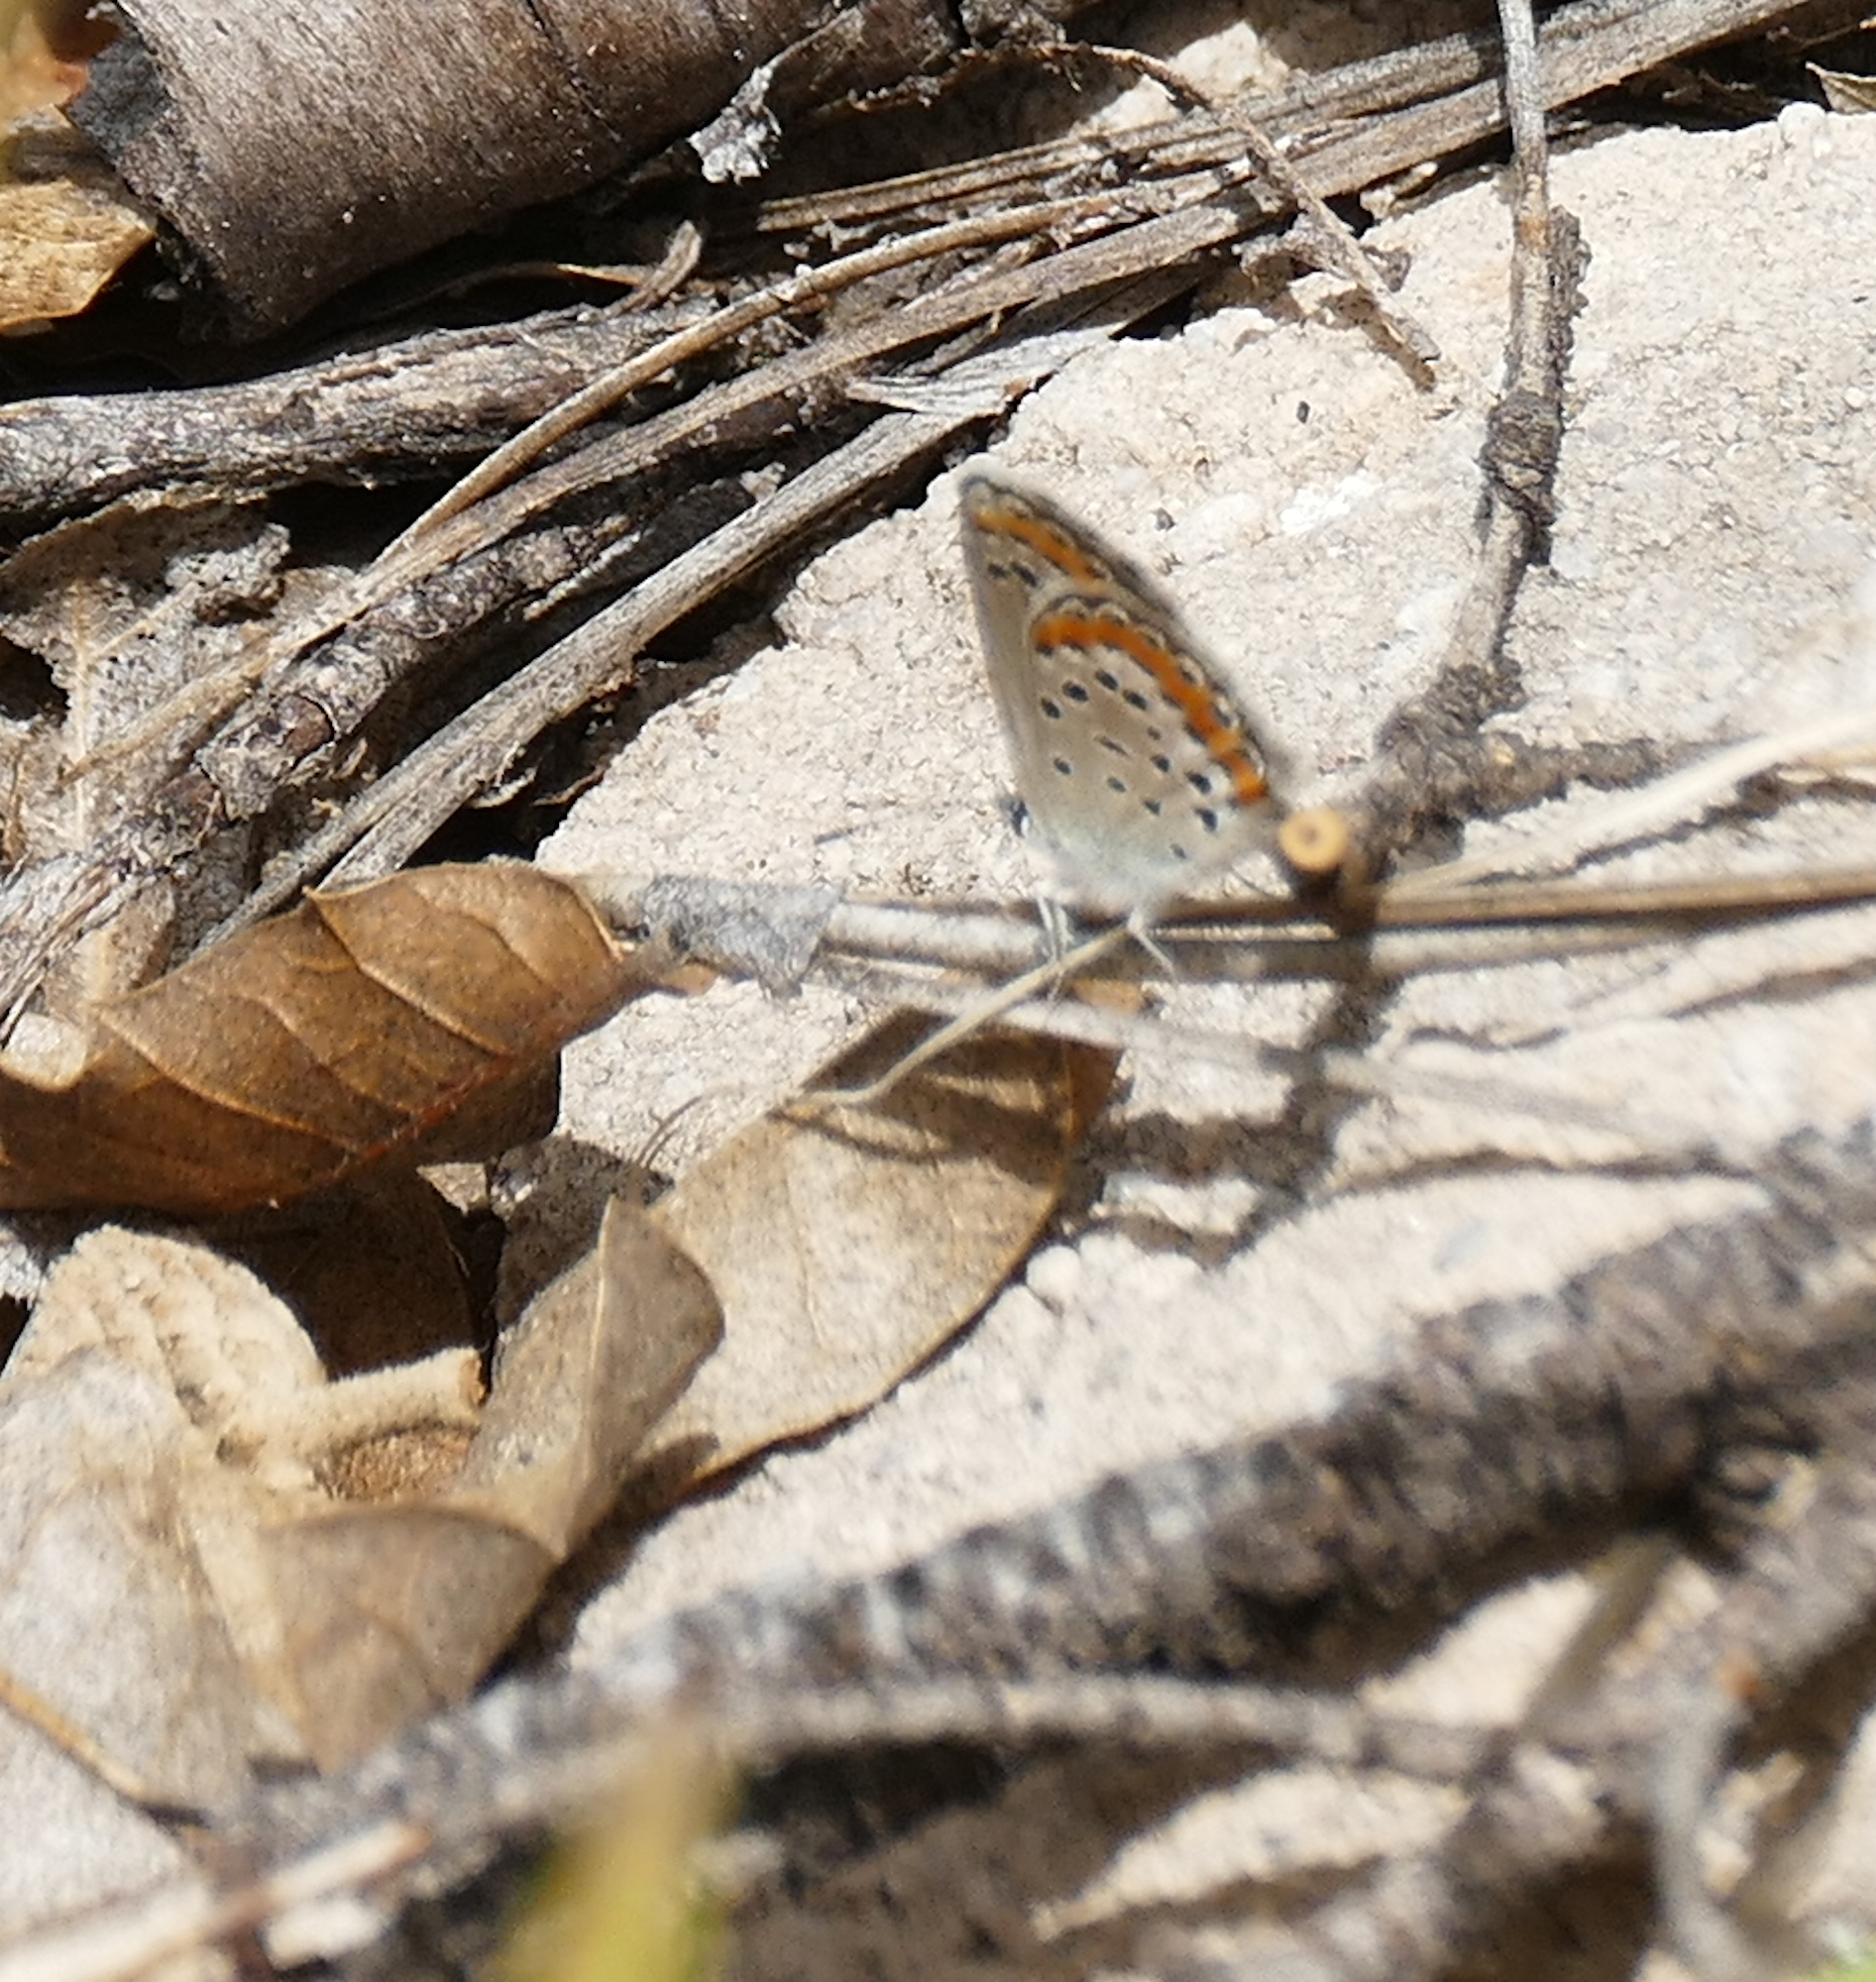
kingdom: Animalia
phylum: Arthropoda
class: Insecta
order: Lepidoptera
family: Lycaenidae
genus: Lycaeides
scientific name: Lycaeides melissa
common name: Melissa blue
